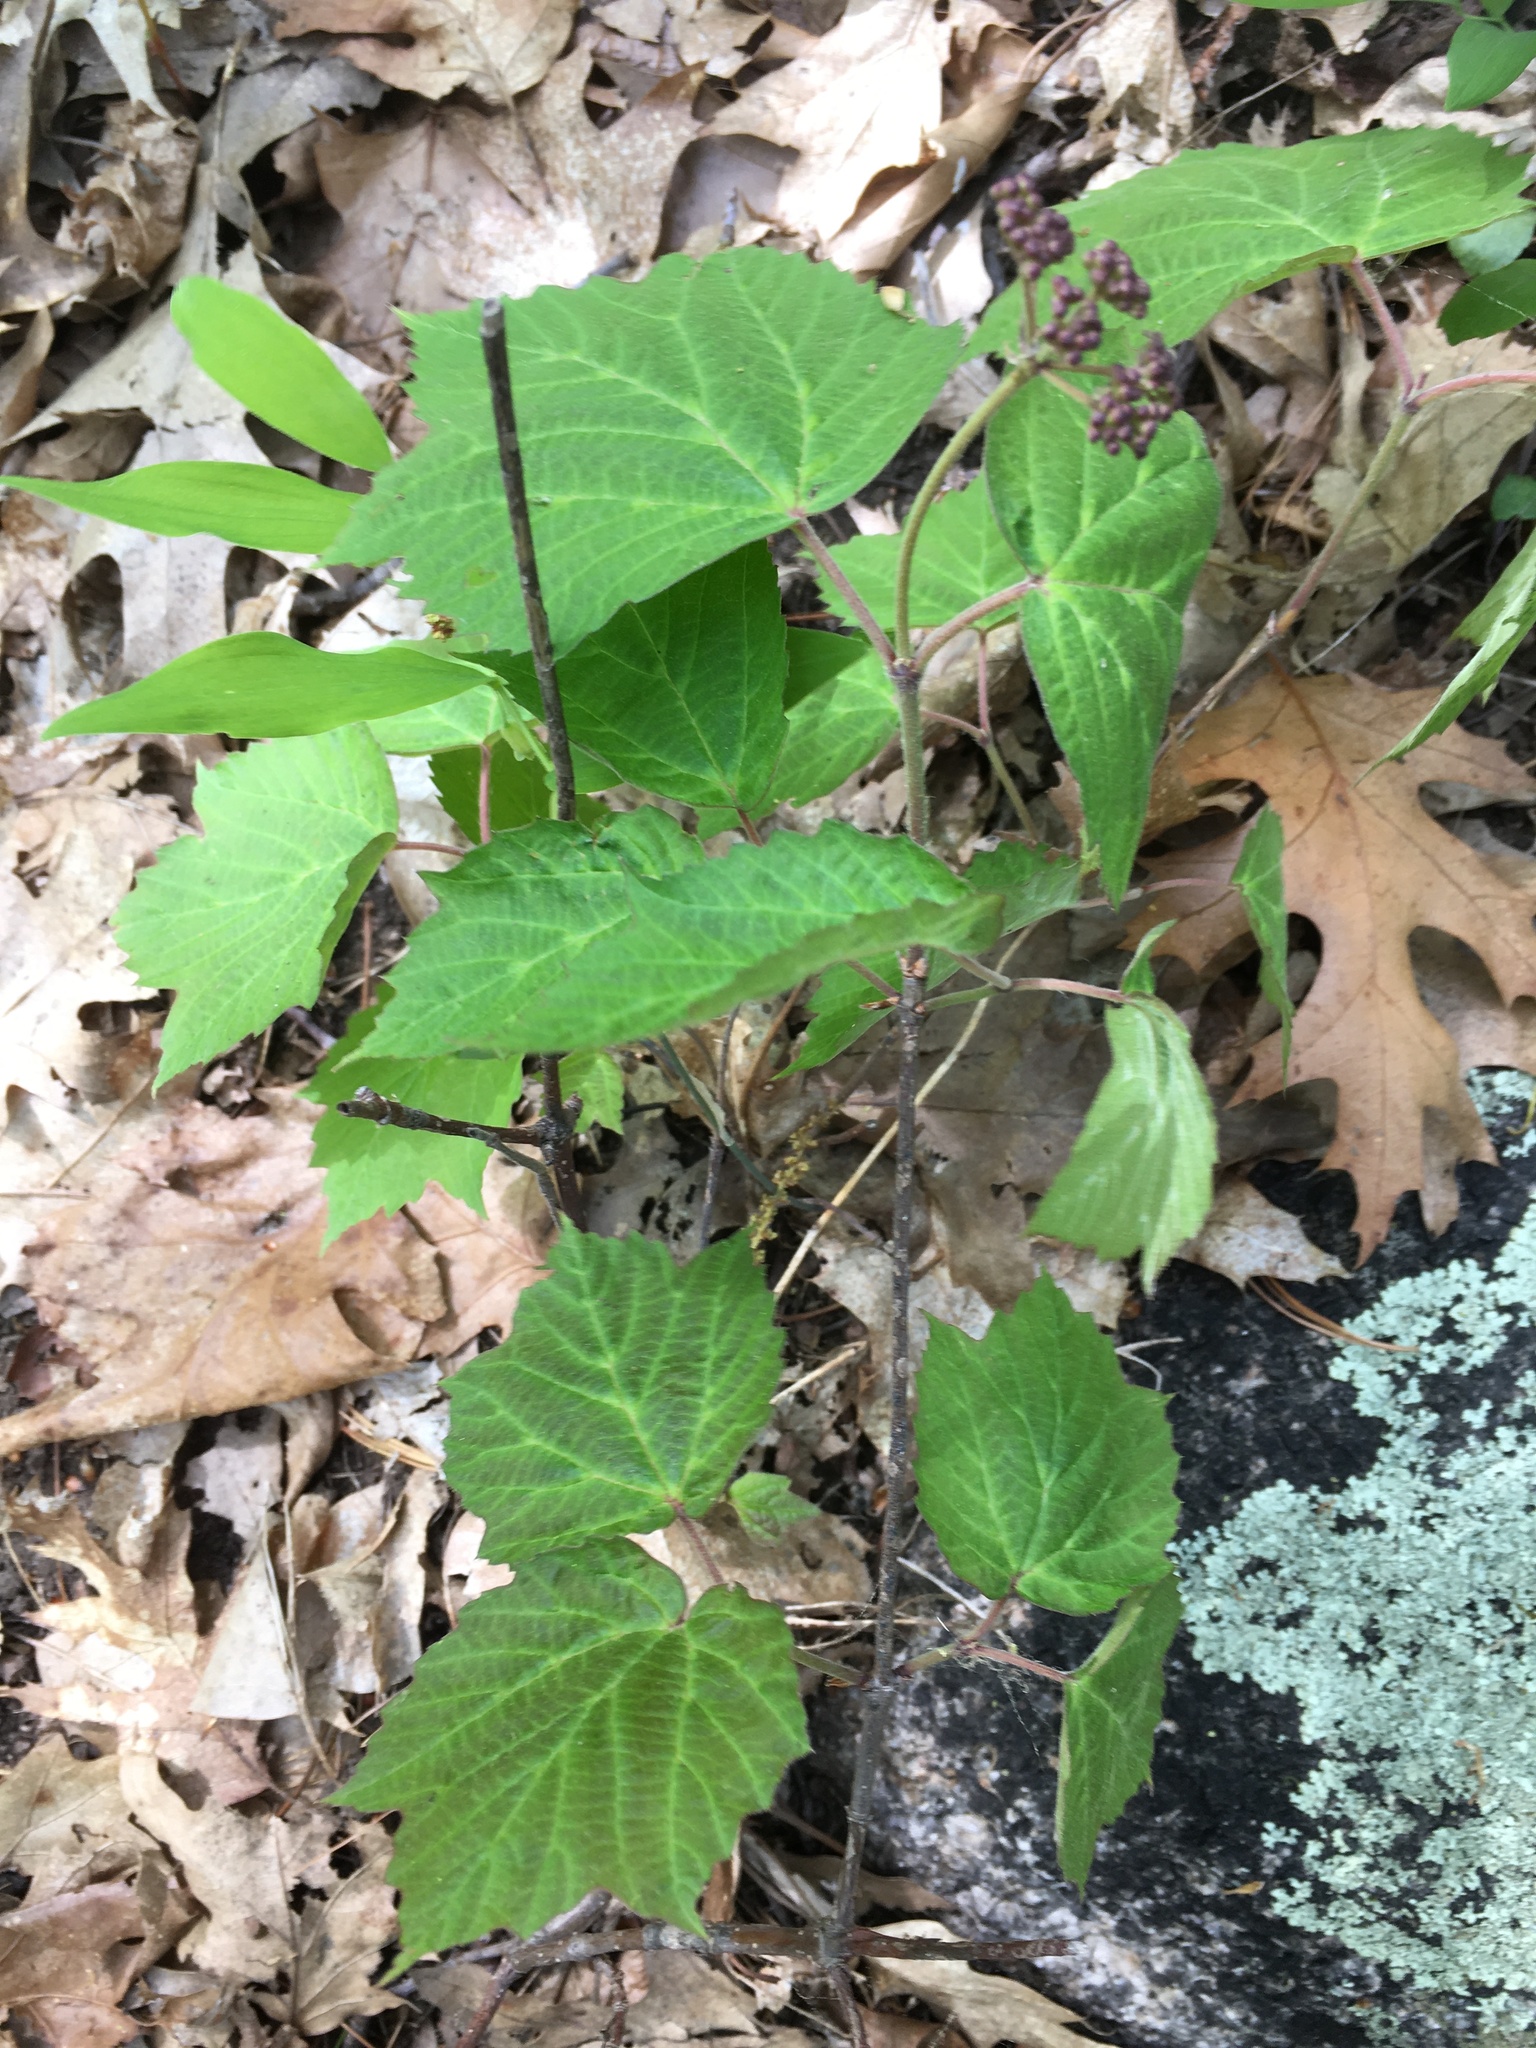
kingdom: Plantae
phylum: Tracheophyta
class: Magnoliopsida
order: Dipsacales
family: Viburnaceae
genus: Viburnum
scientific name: Viburnum acerifolium
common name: Dockmackie
